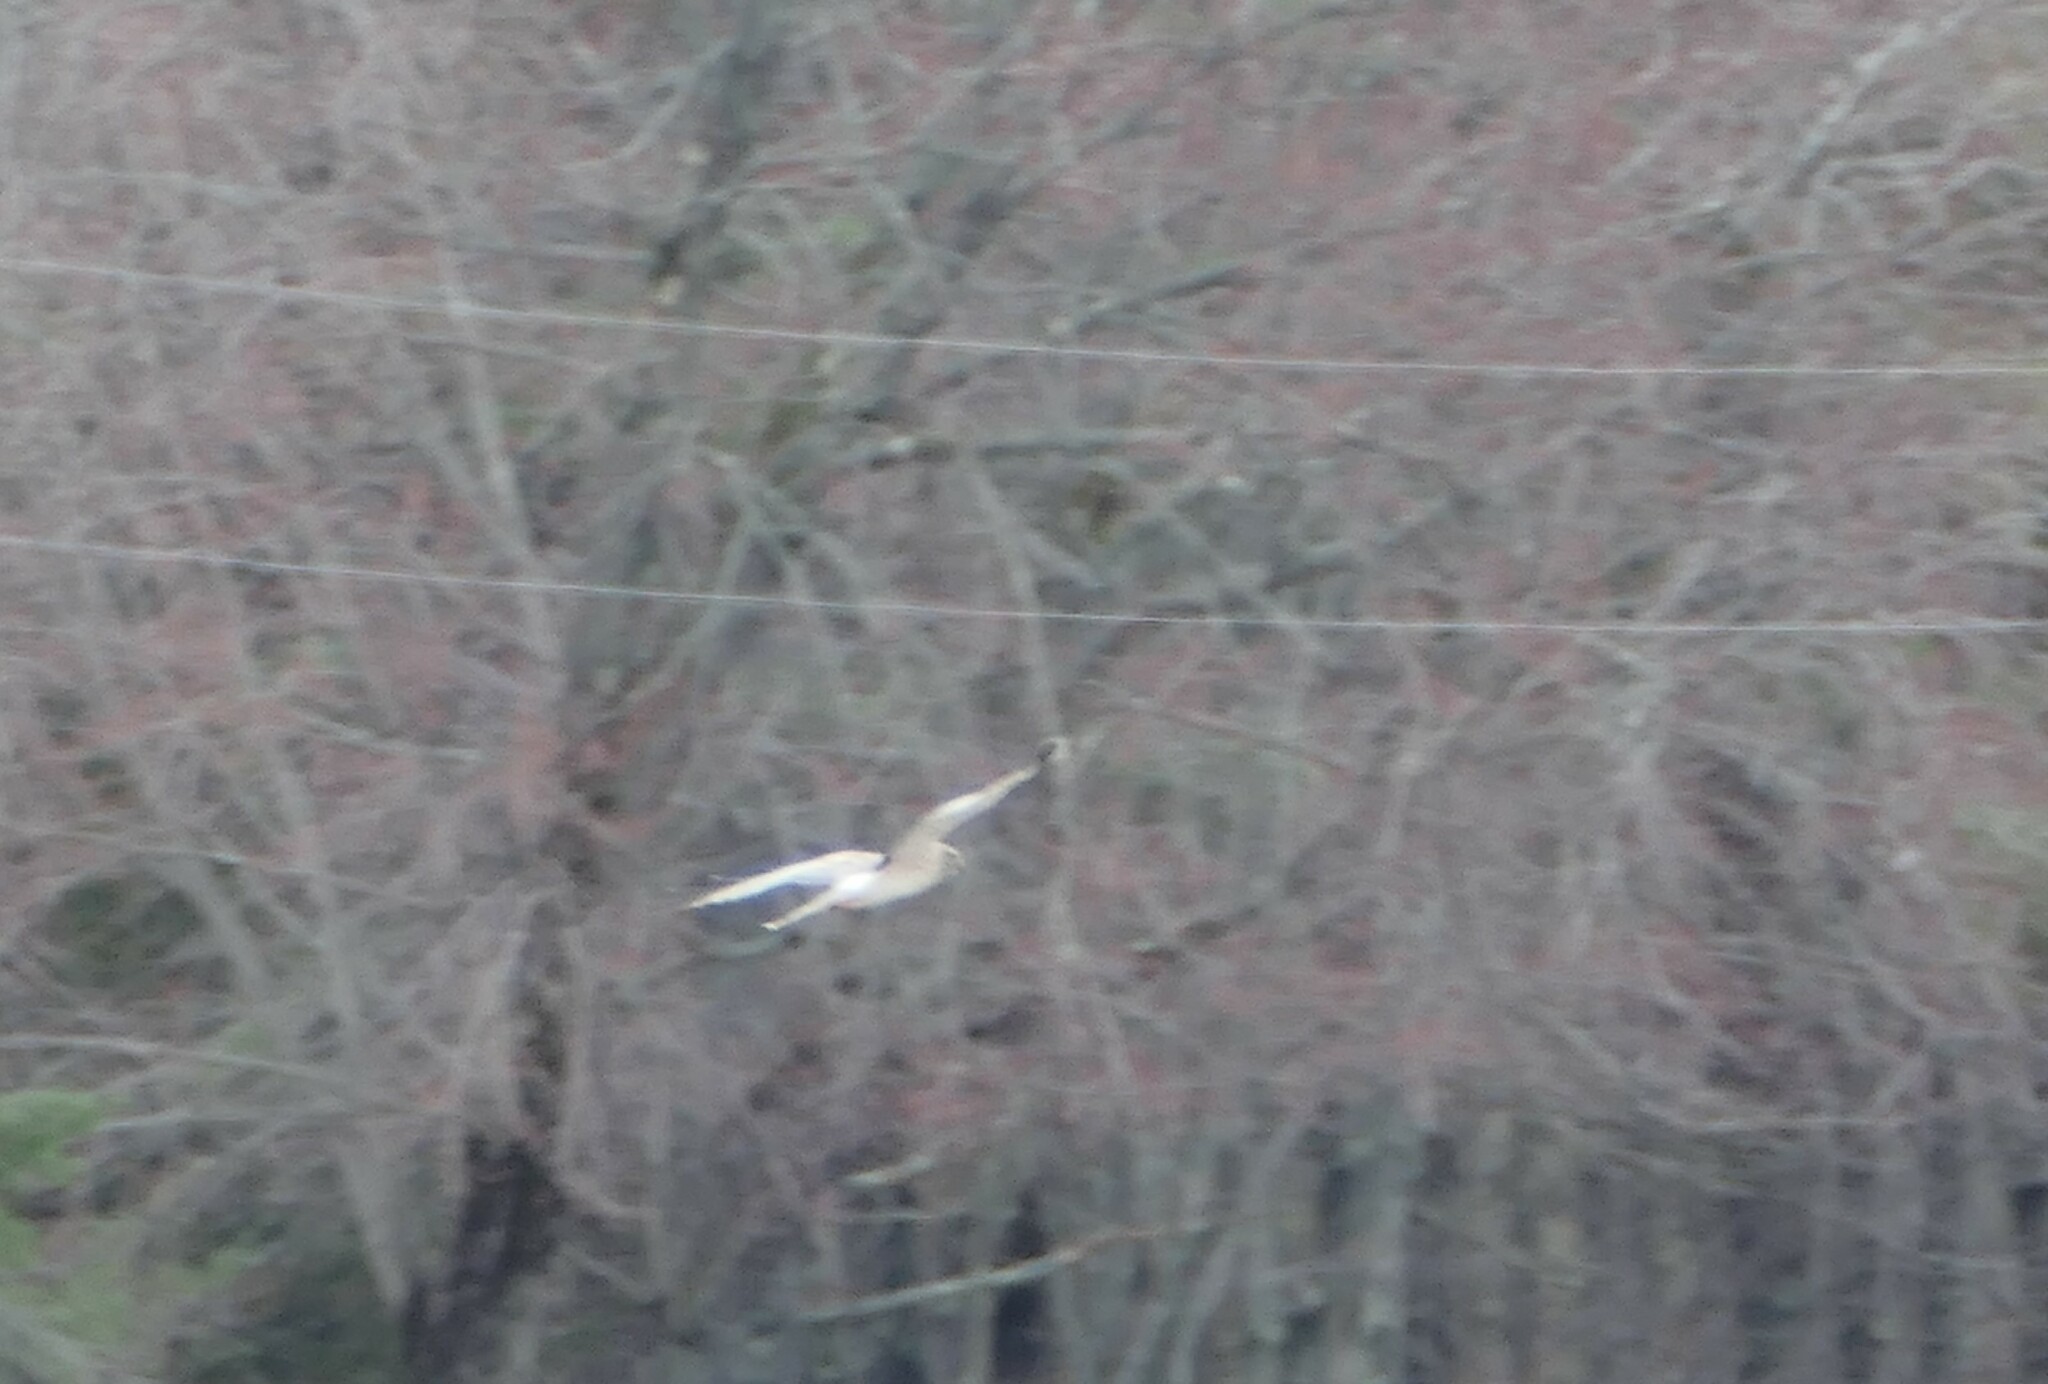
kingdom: Animalia
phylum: Chordata
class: Aves
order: Accipitriformes
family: Accipitridae
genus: Circus
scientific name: Circus cyaneus
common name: Hen harrier
